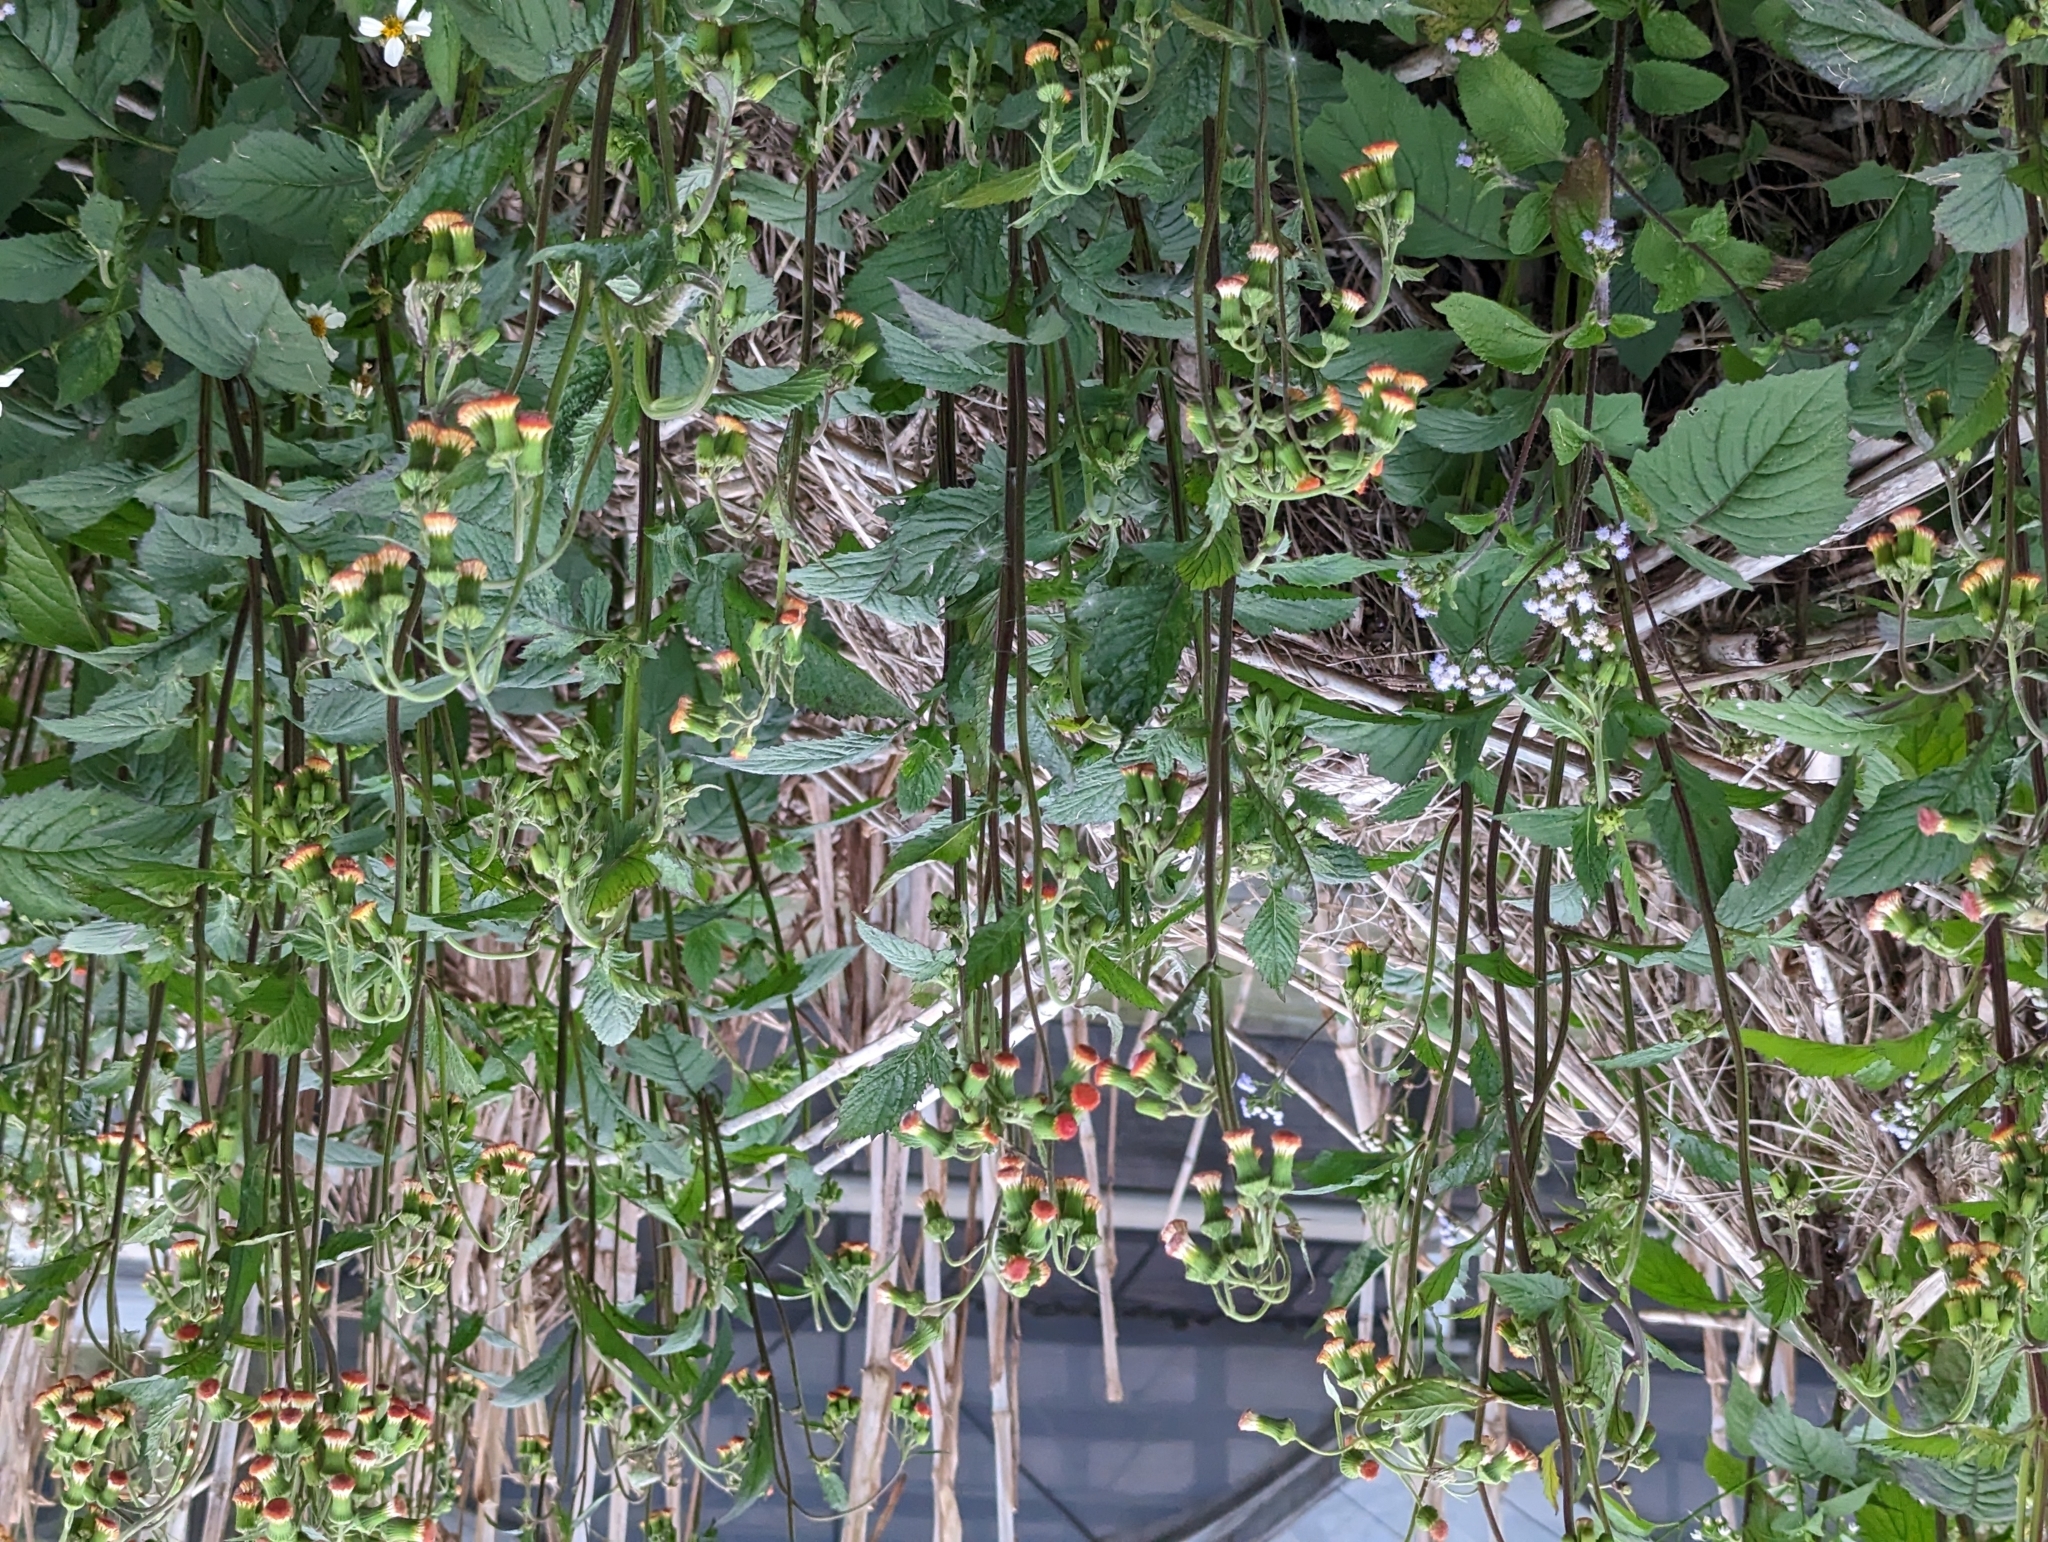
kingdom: Plantae
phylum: Tracheophyta
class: Magnoliopsida
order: Asterales
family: Asteraceae
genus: Crassocephalum
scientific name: Crassocephalum crepidioides
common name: Redflower ragleaf
